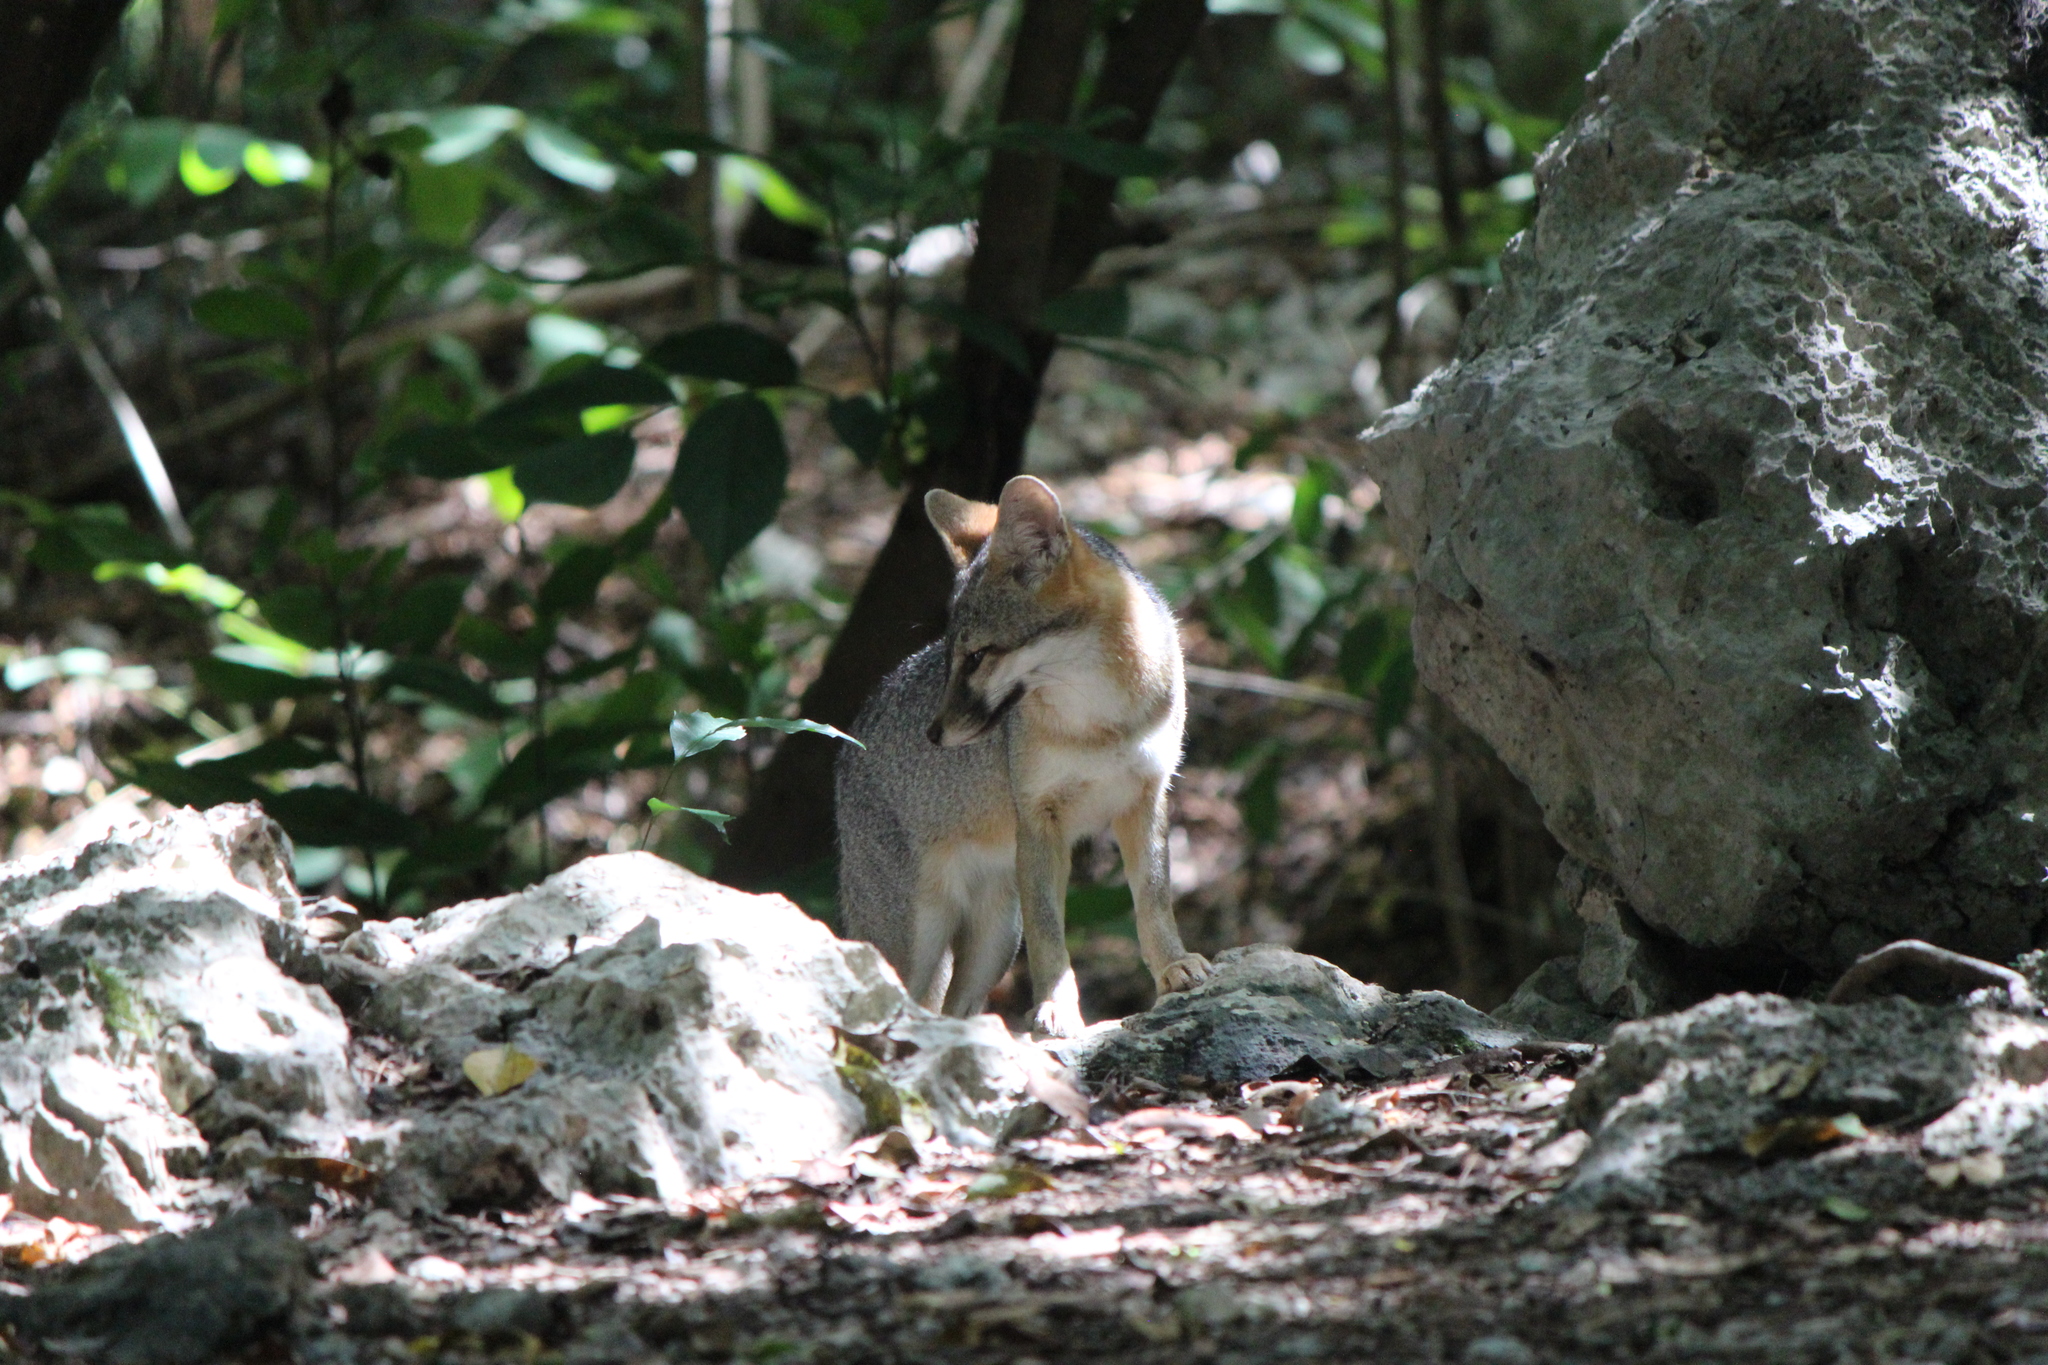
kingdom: Animalia
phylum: Chordata
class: Mammalia
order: Carnivora
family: Canidae
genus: Urocyon
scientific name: Urocyon cinereoargenteus
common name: Gray fox
